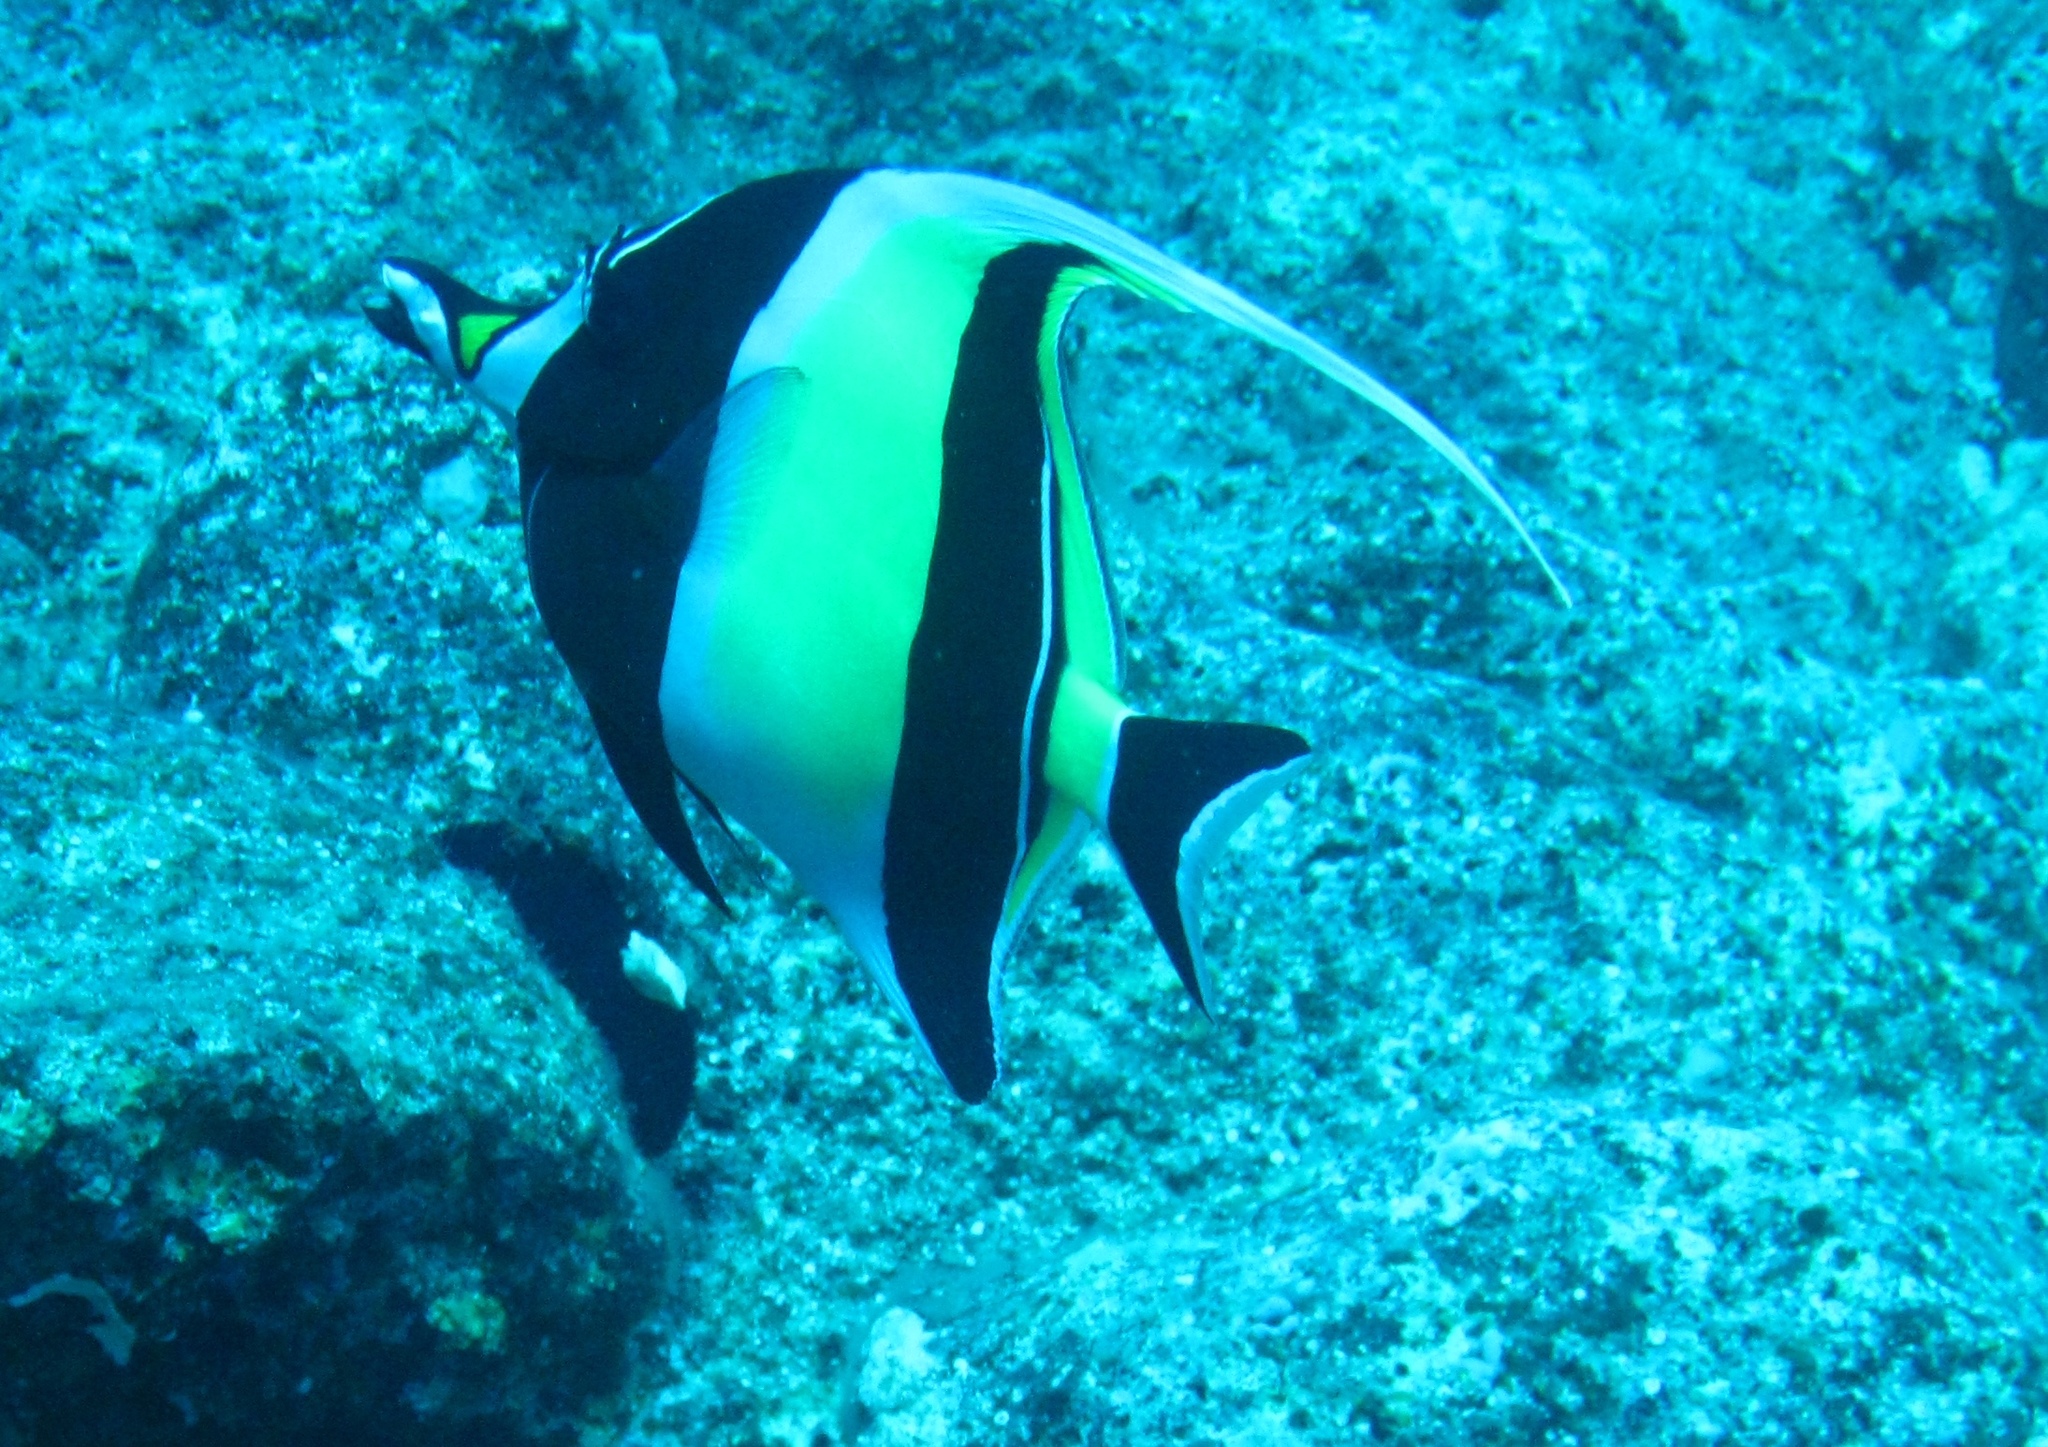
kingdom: Animalia
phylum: Chordata
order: Perciformes
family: Zanclidae
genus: Zanclus
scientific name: Zanclus cornutus
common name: Moorish idol
